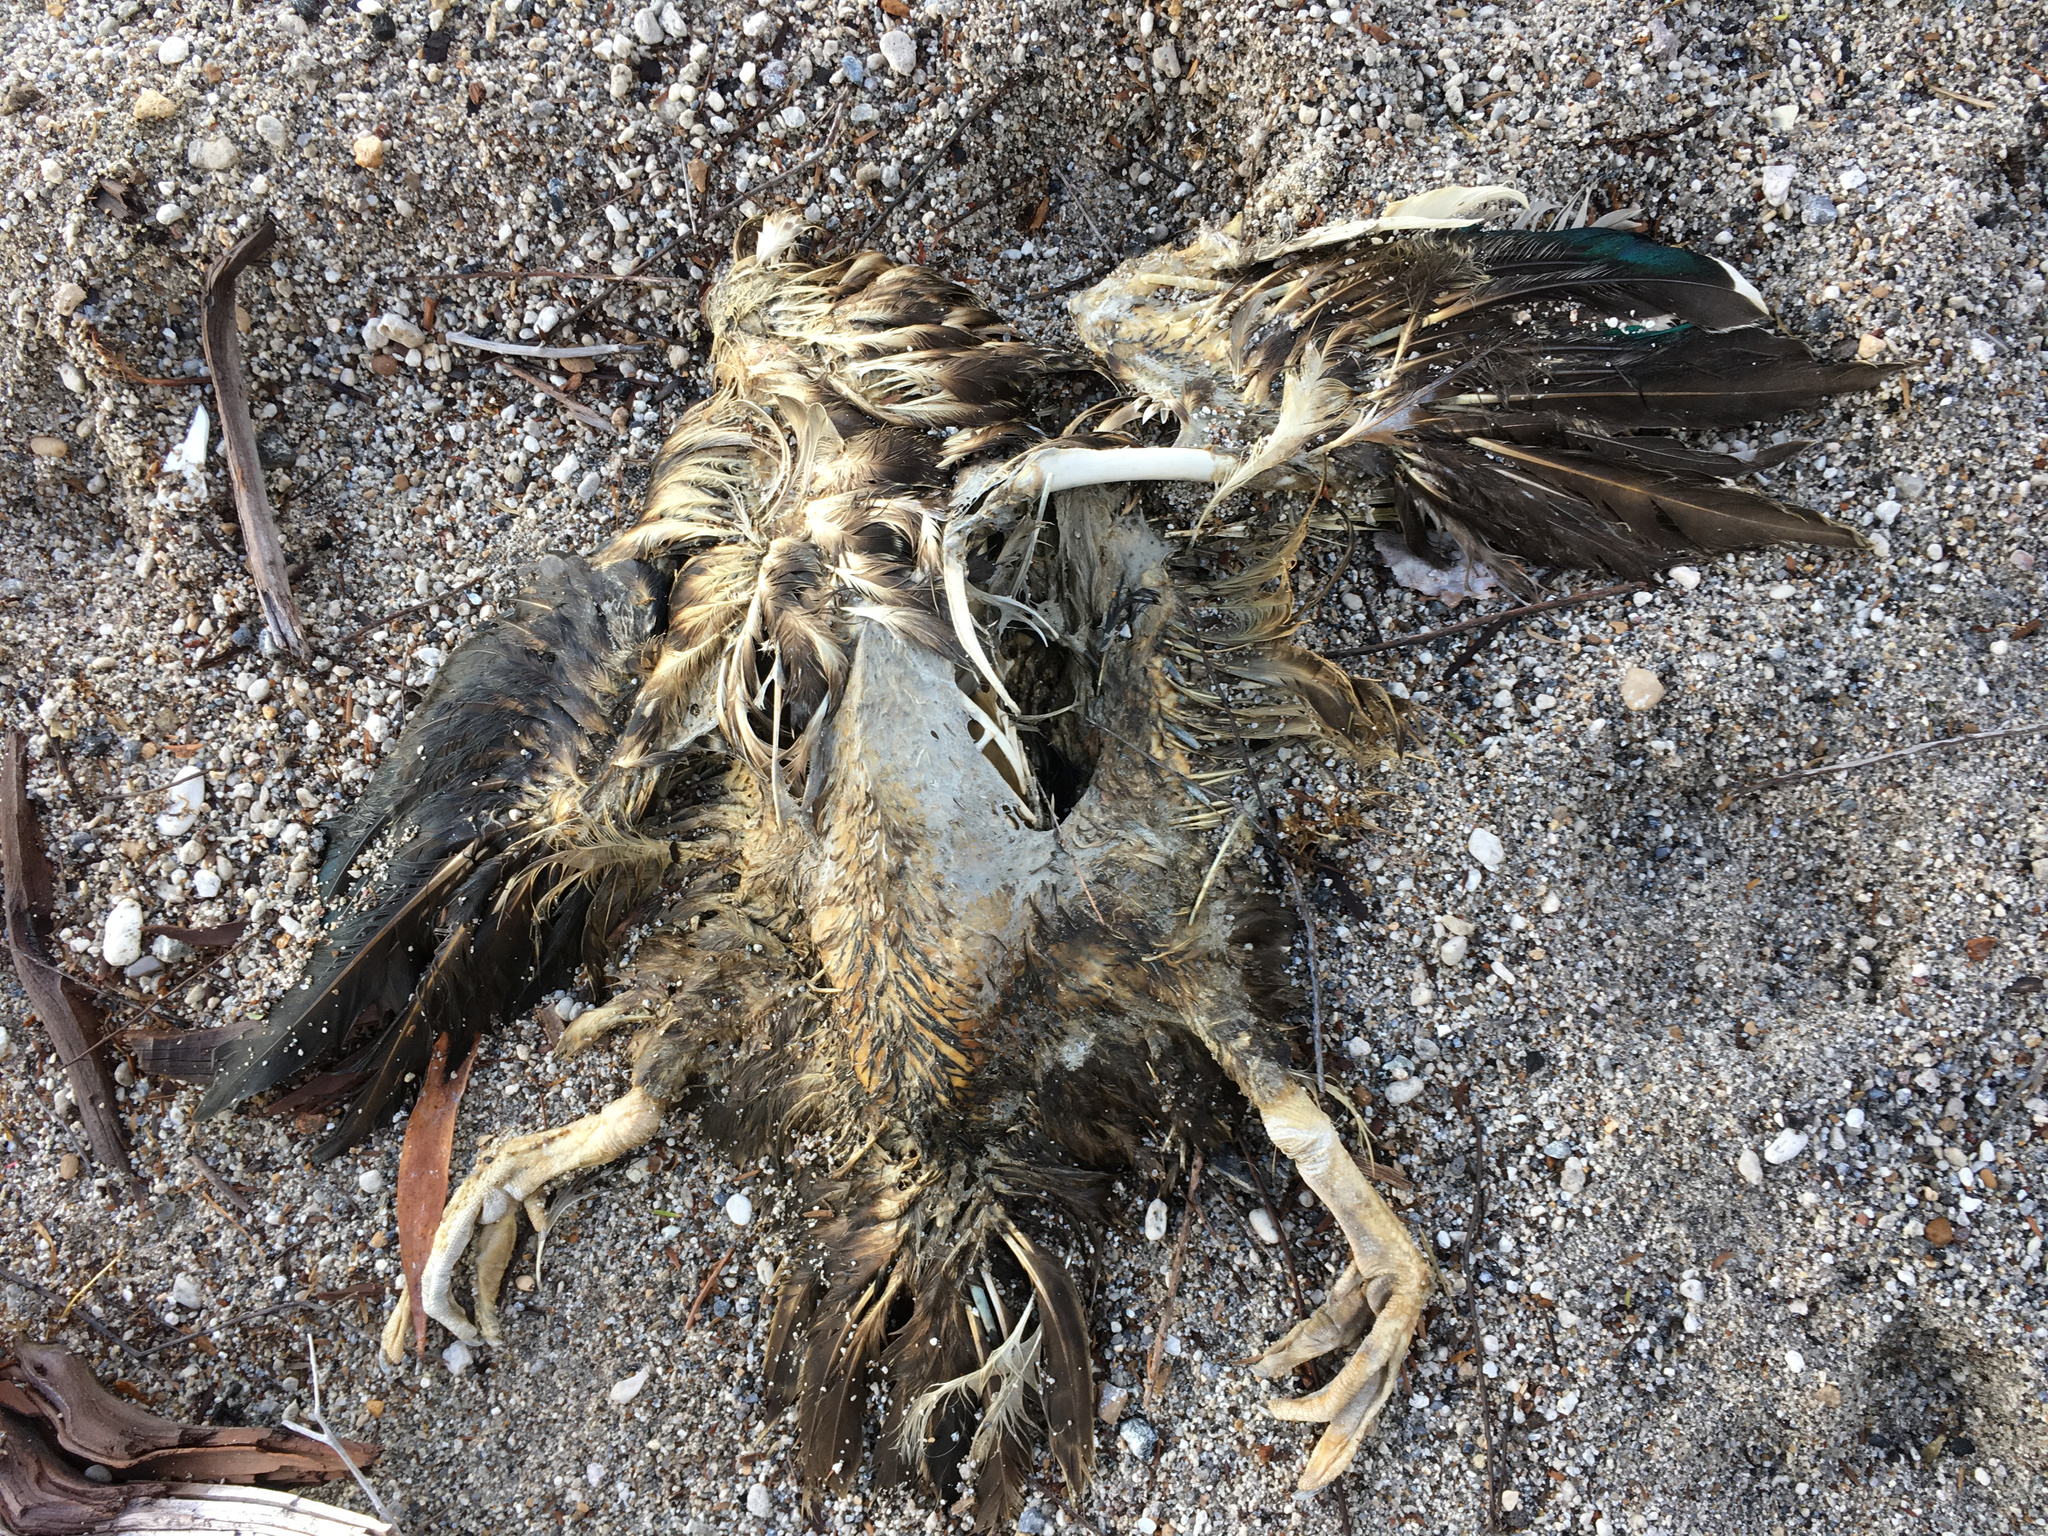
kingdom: Animalia
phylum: Chordata
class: Aves
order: Anseriformes
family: Anatidae
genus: Anas
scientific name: Anas platyrhynchos
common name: Mallard
